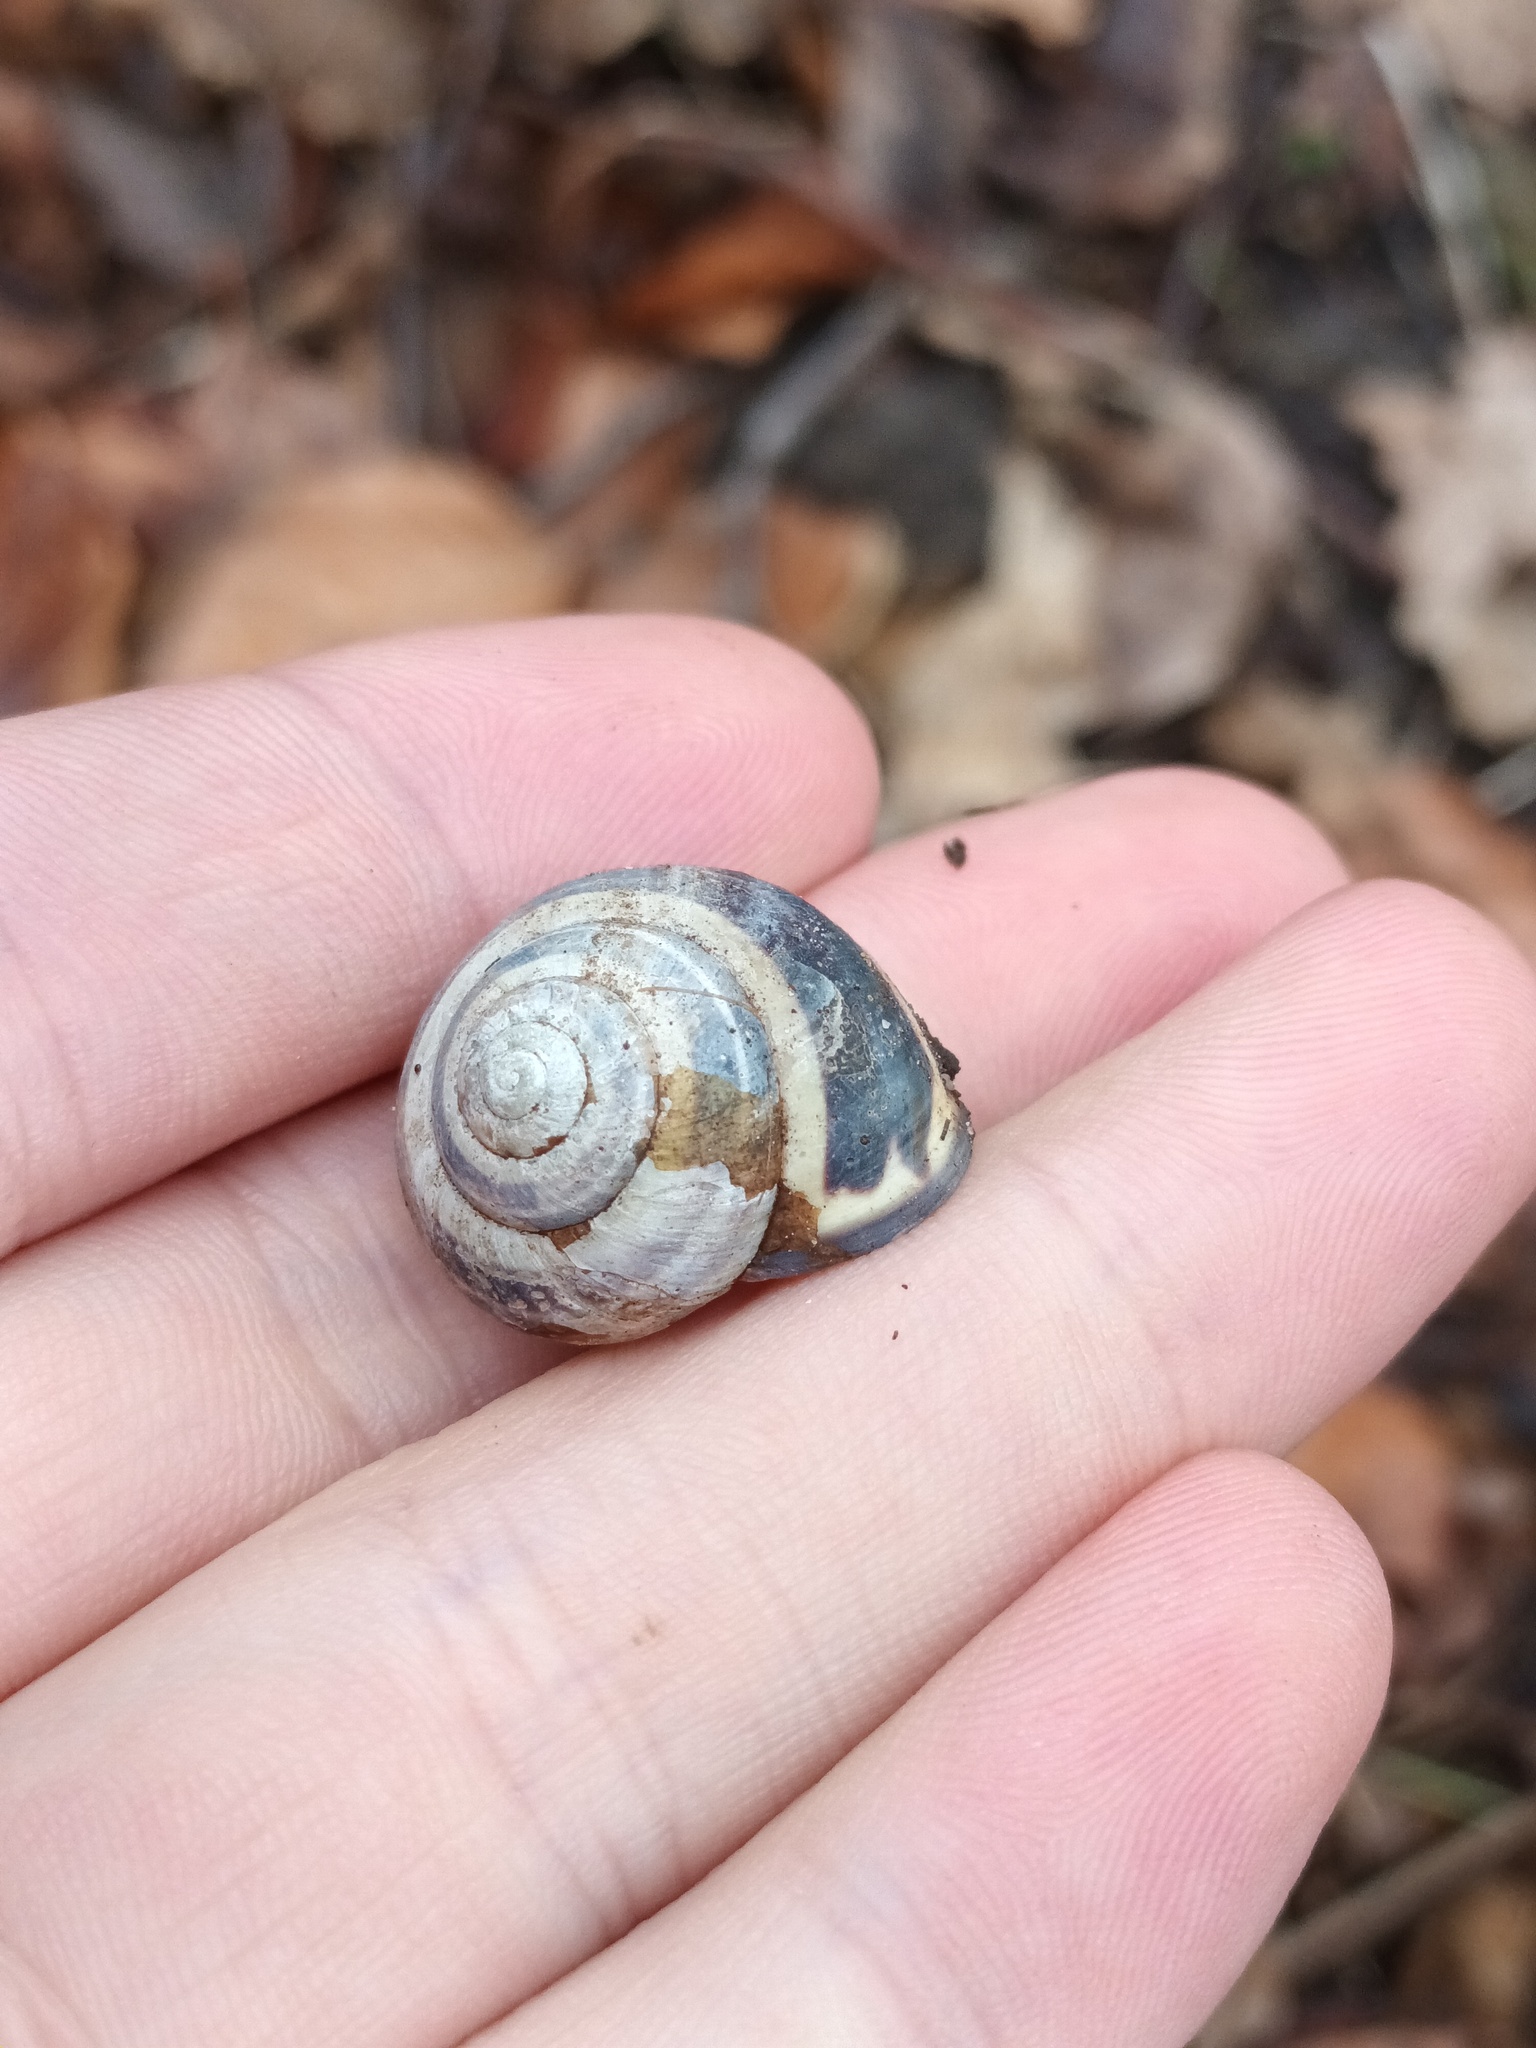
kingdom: Animalia
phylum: Mollusca
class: Gastropoda
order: Stylommatophora
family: Helicidae
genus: Cepaea
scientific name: Cepaea nemoralis
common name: Grovesnail
